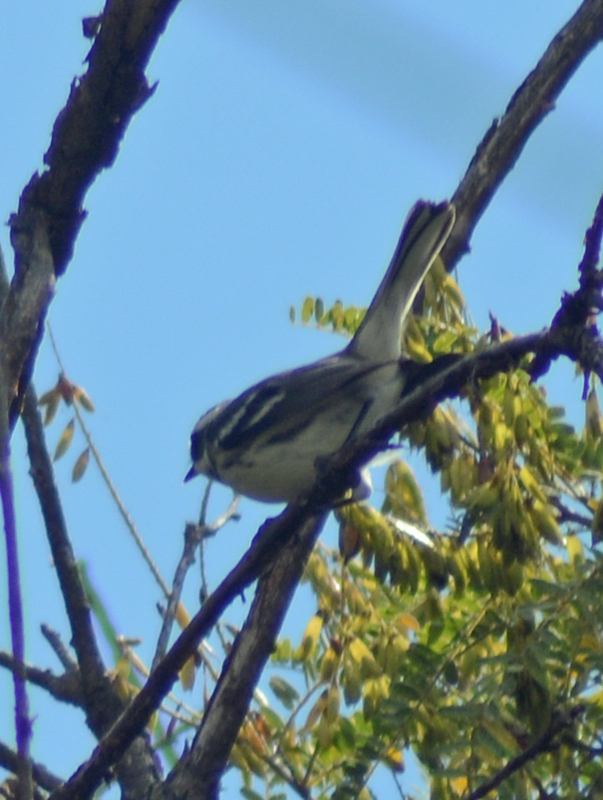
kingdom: Animalia
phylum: Chordata
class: Aves
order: Passeriformes
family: Parulidae
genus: Setophaga
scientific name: Setophaga nigrescens
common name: Black-throated gray warbler
